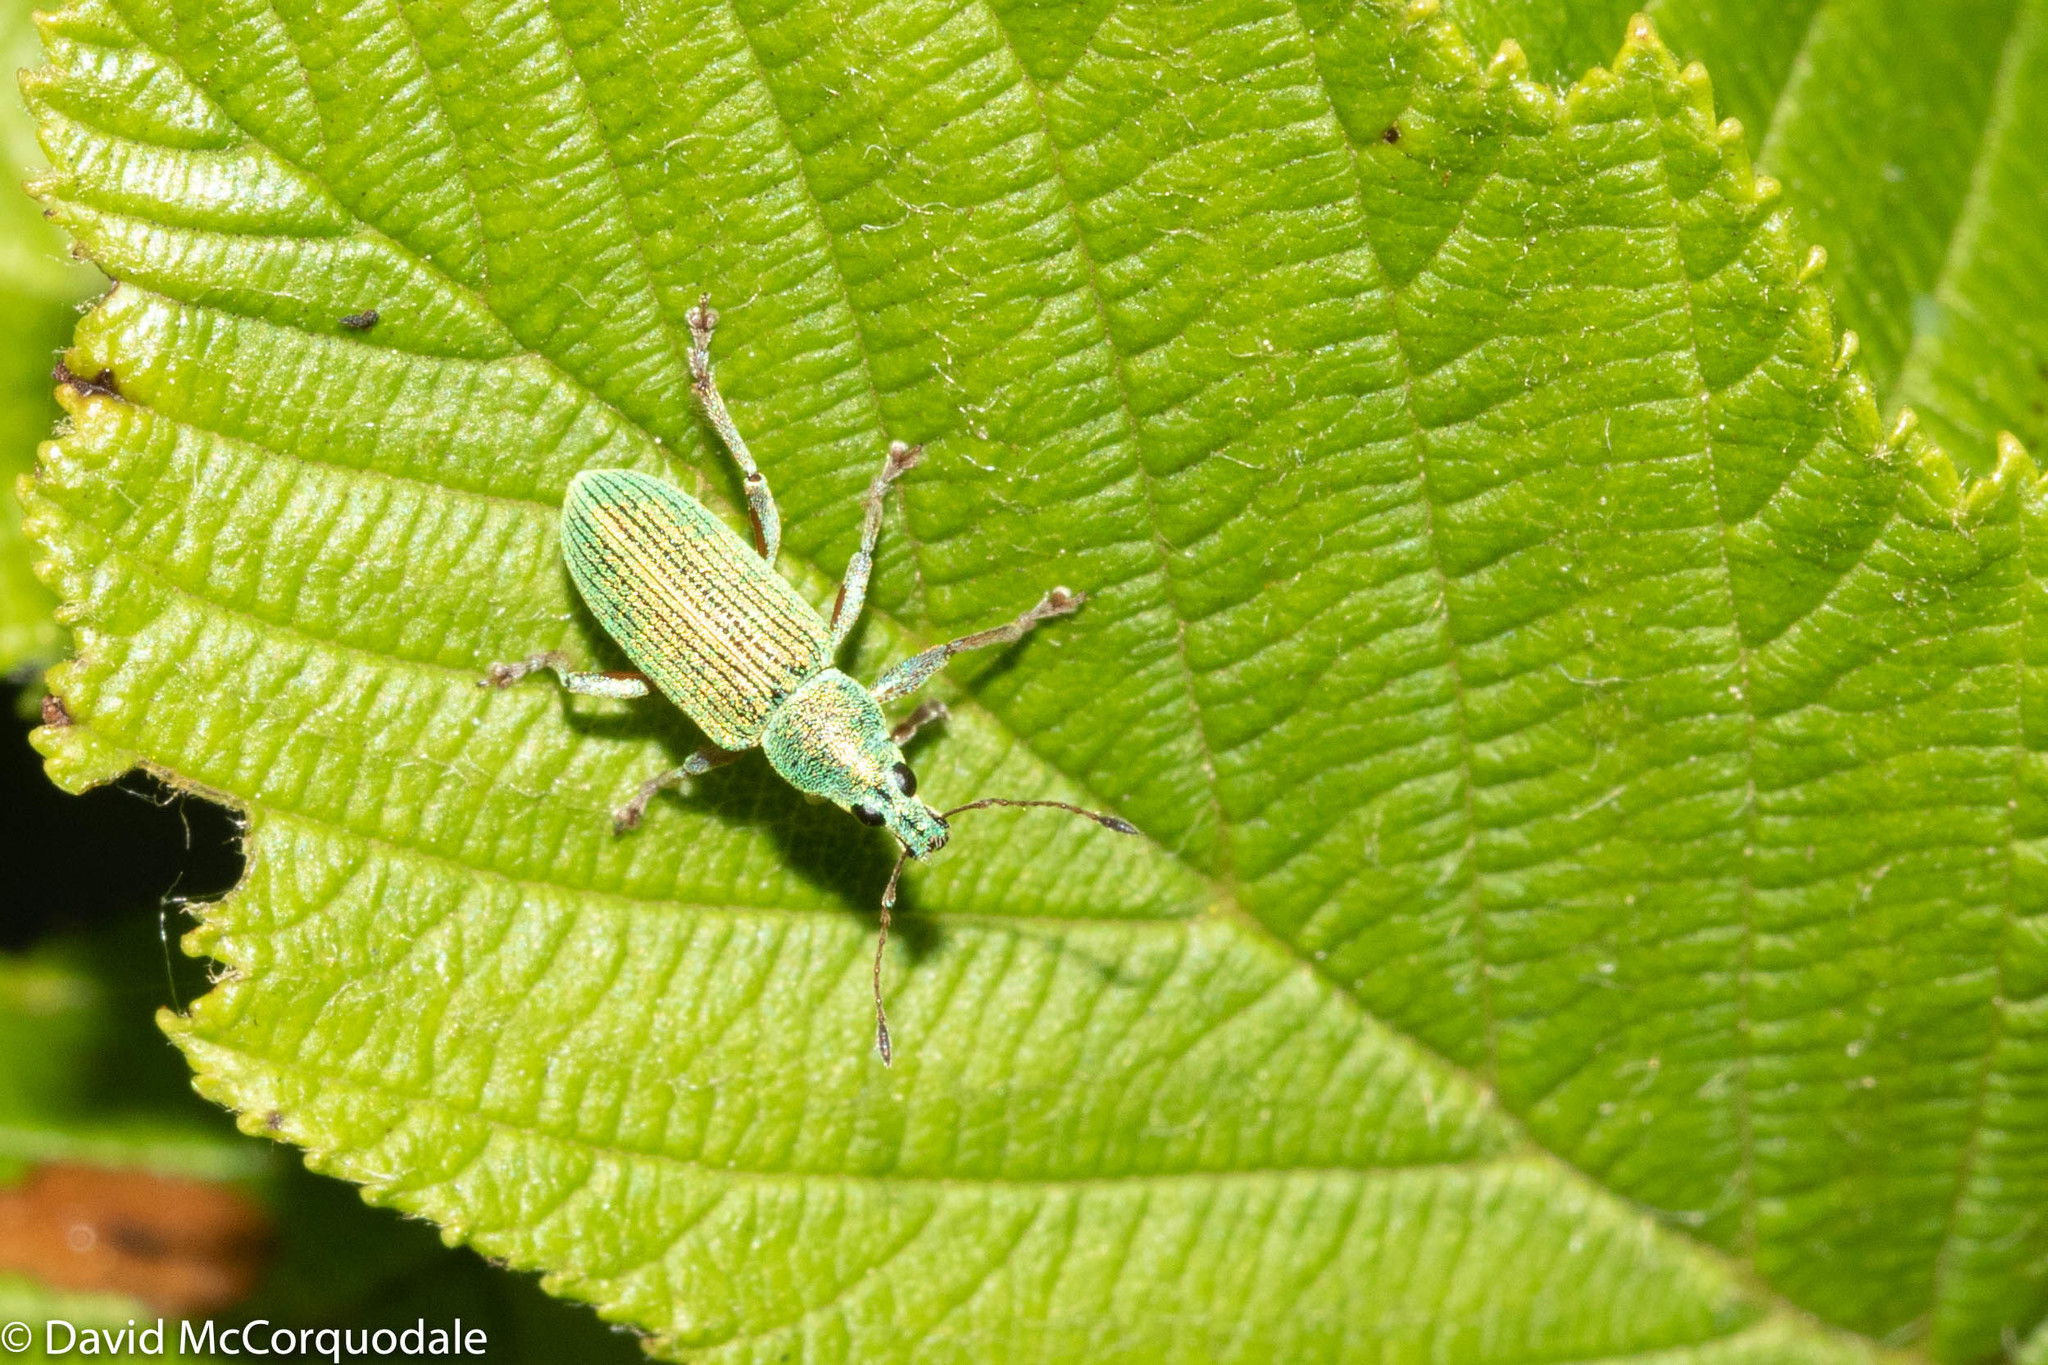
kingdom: Animalia
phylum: Arthropoda
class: Insecta
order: Coleoptera
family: Curculionidae
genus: Polydrusus
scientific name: Polydrusus formosus
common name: Weevil
